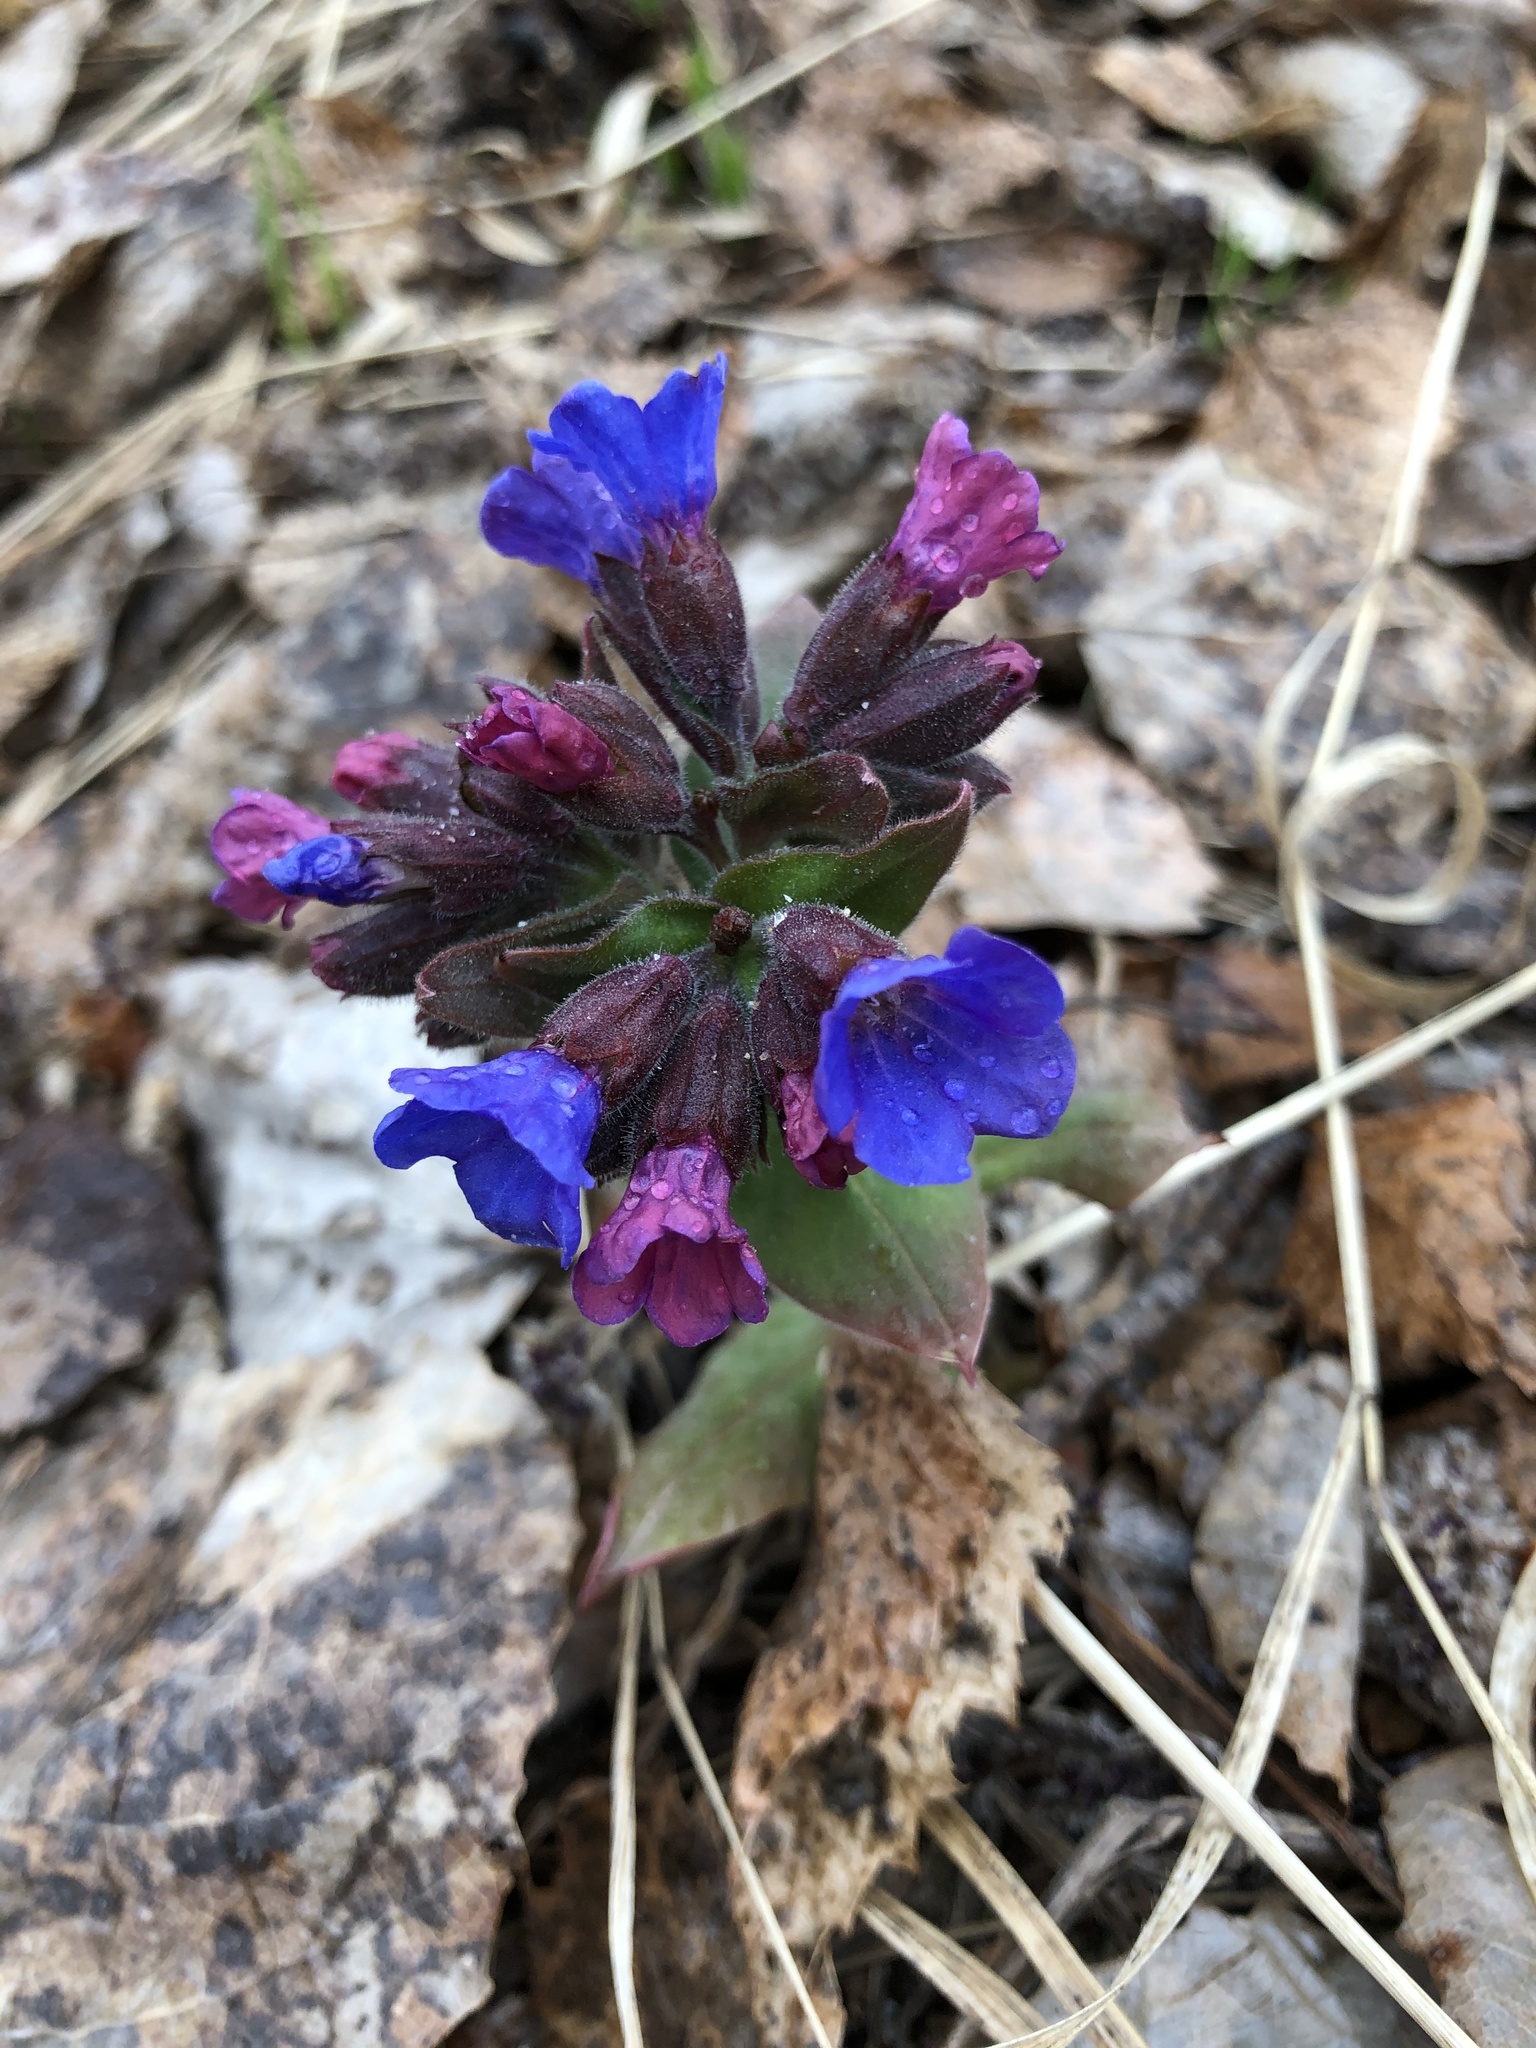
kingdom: Plantae
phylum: Tracheophyta
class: Magnoliopsida
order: Boraginales
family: Boraginaceae
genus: Pulmonaria
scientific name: Pulmonaria mollis
